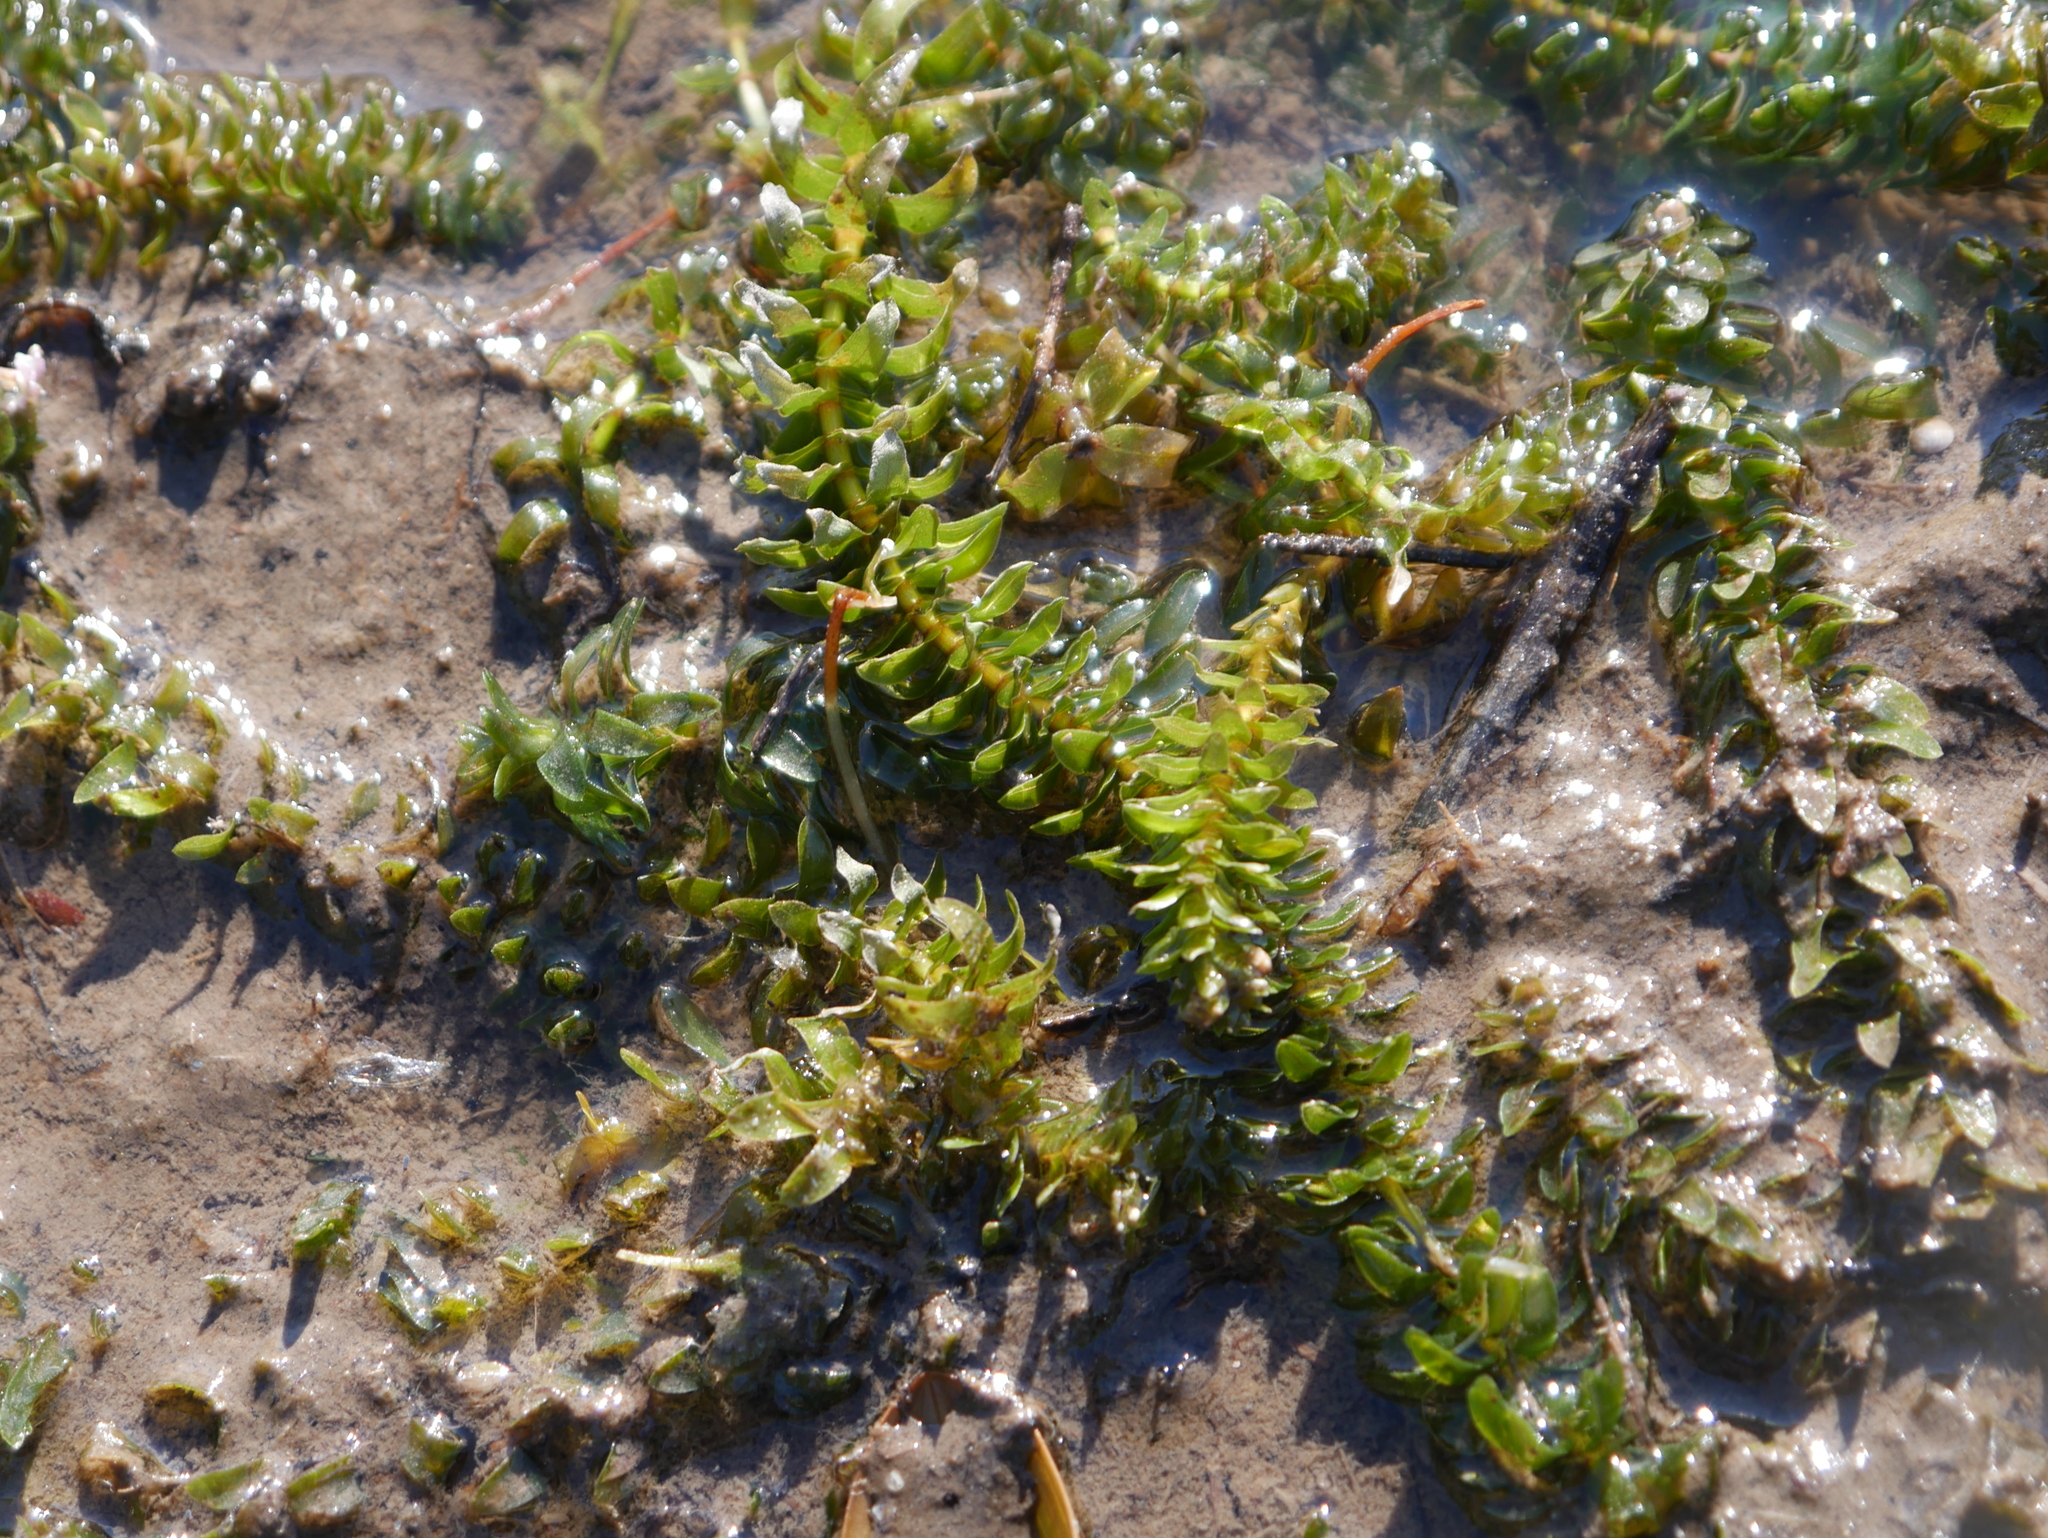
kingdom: Plantae
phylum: Tracheophyta
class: Liliopsida
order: Alismatales
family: Hydrocharitaceae
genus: Elodea
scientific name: Elodea canadensis
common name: Canadian waterweed
